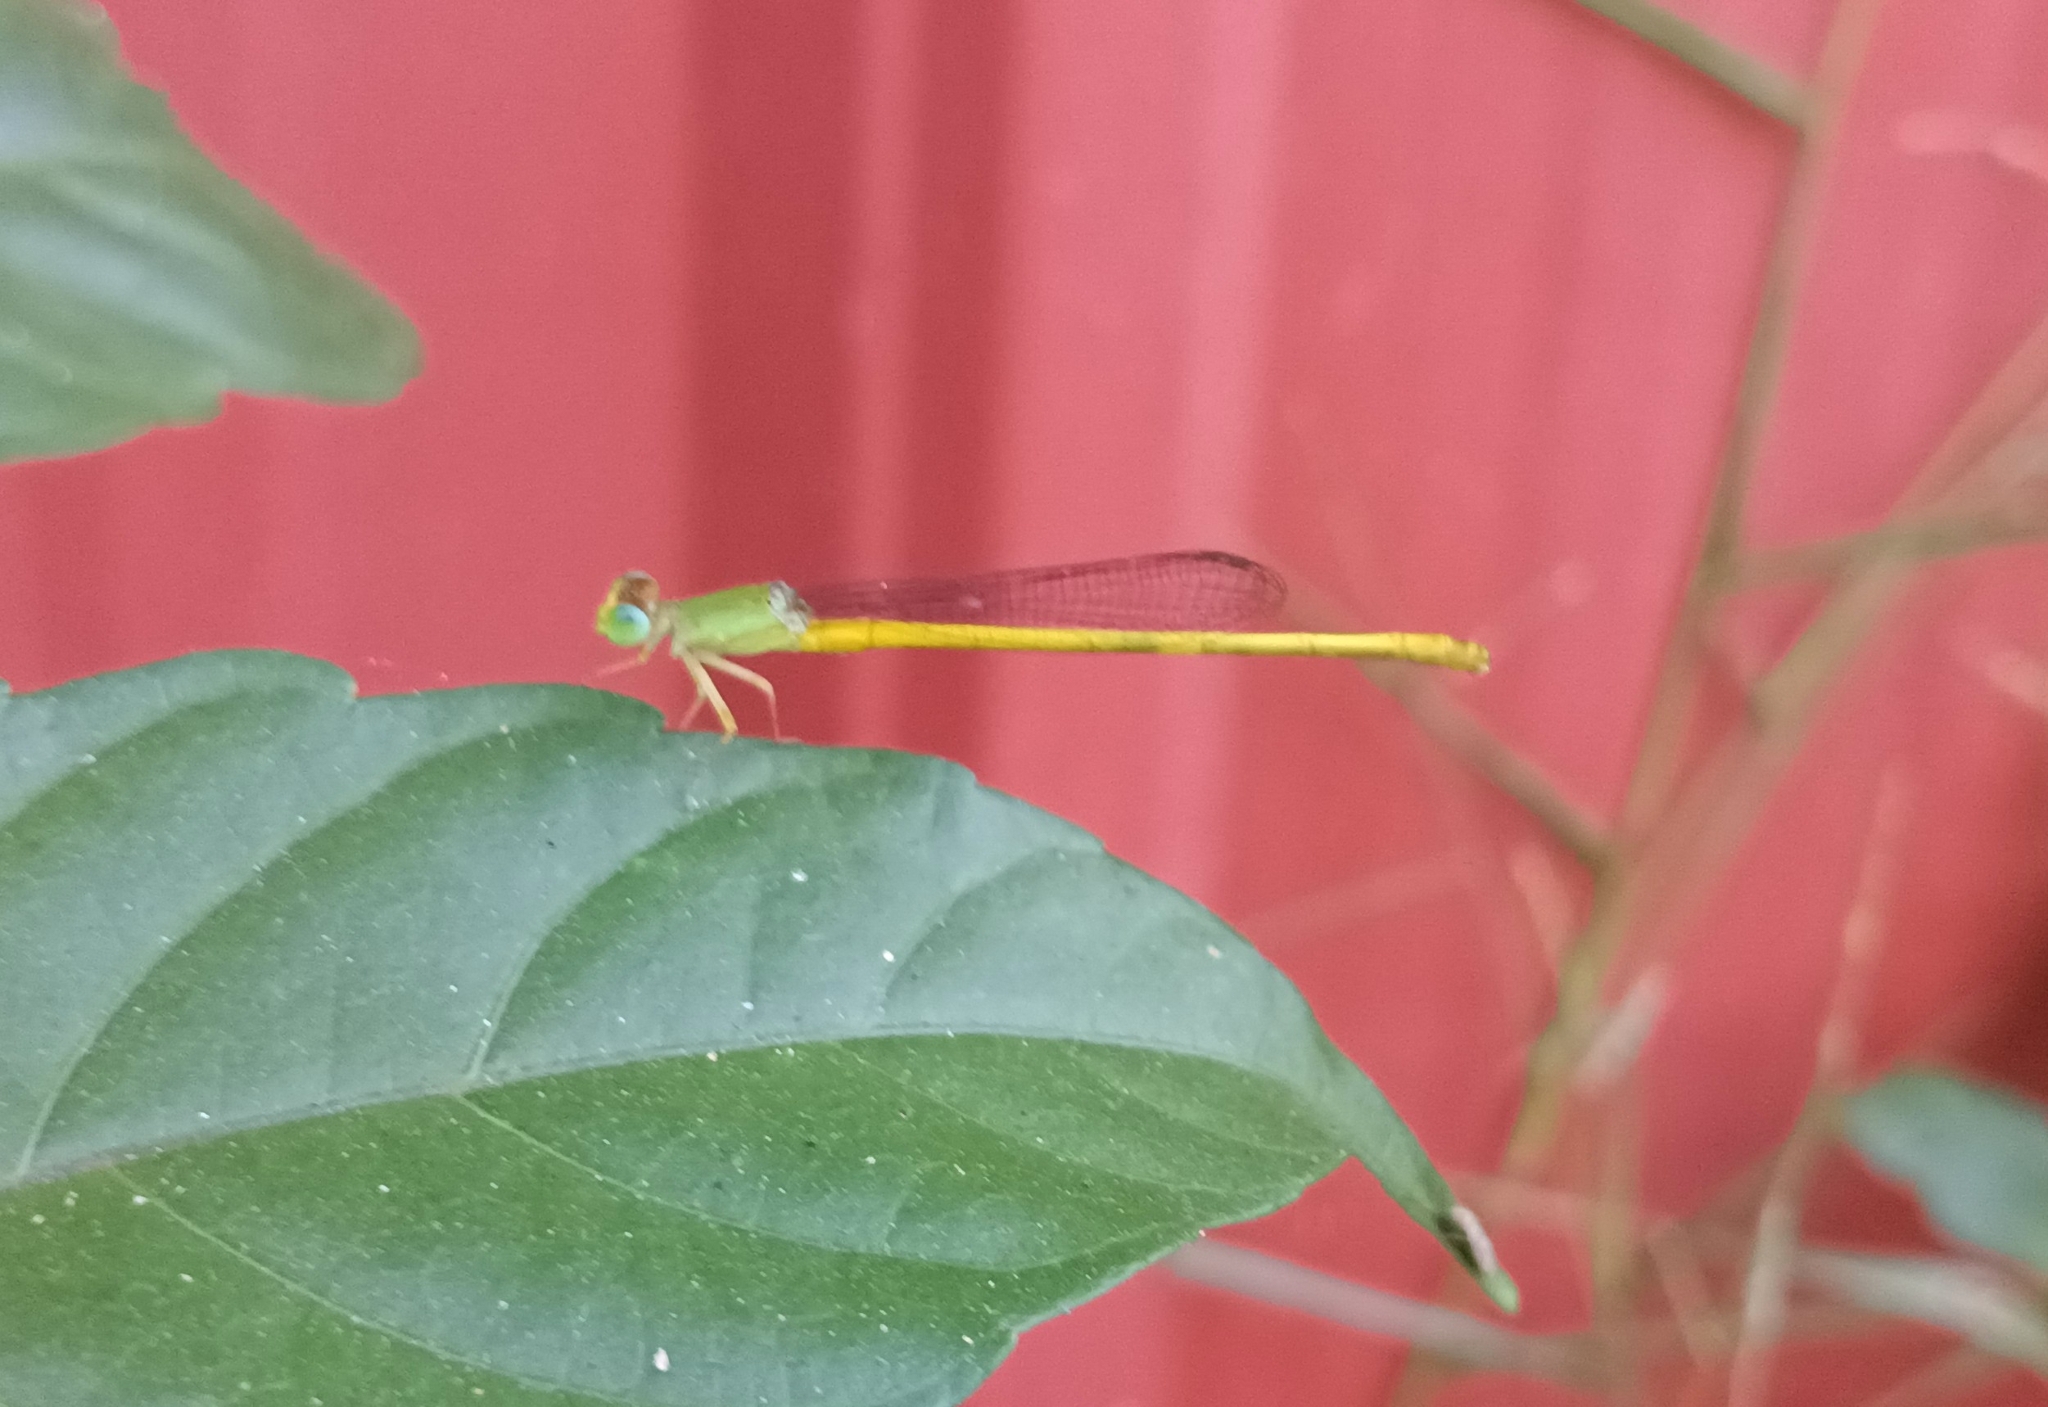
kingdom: Animalia
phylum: Arthropoda
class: Insecta
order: Odonata
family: Coenagrionidae
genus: Ceriagrion
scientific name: Ceriagrion coromandelianum
